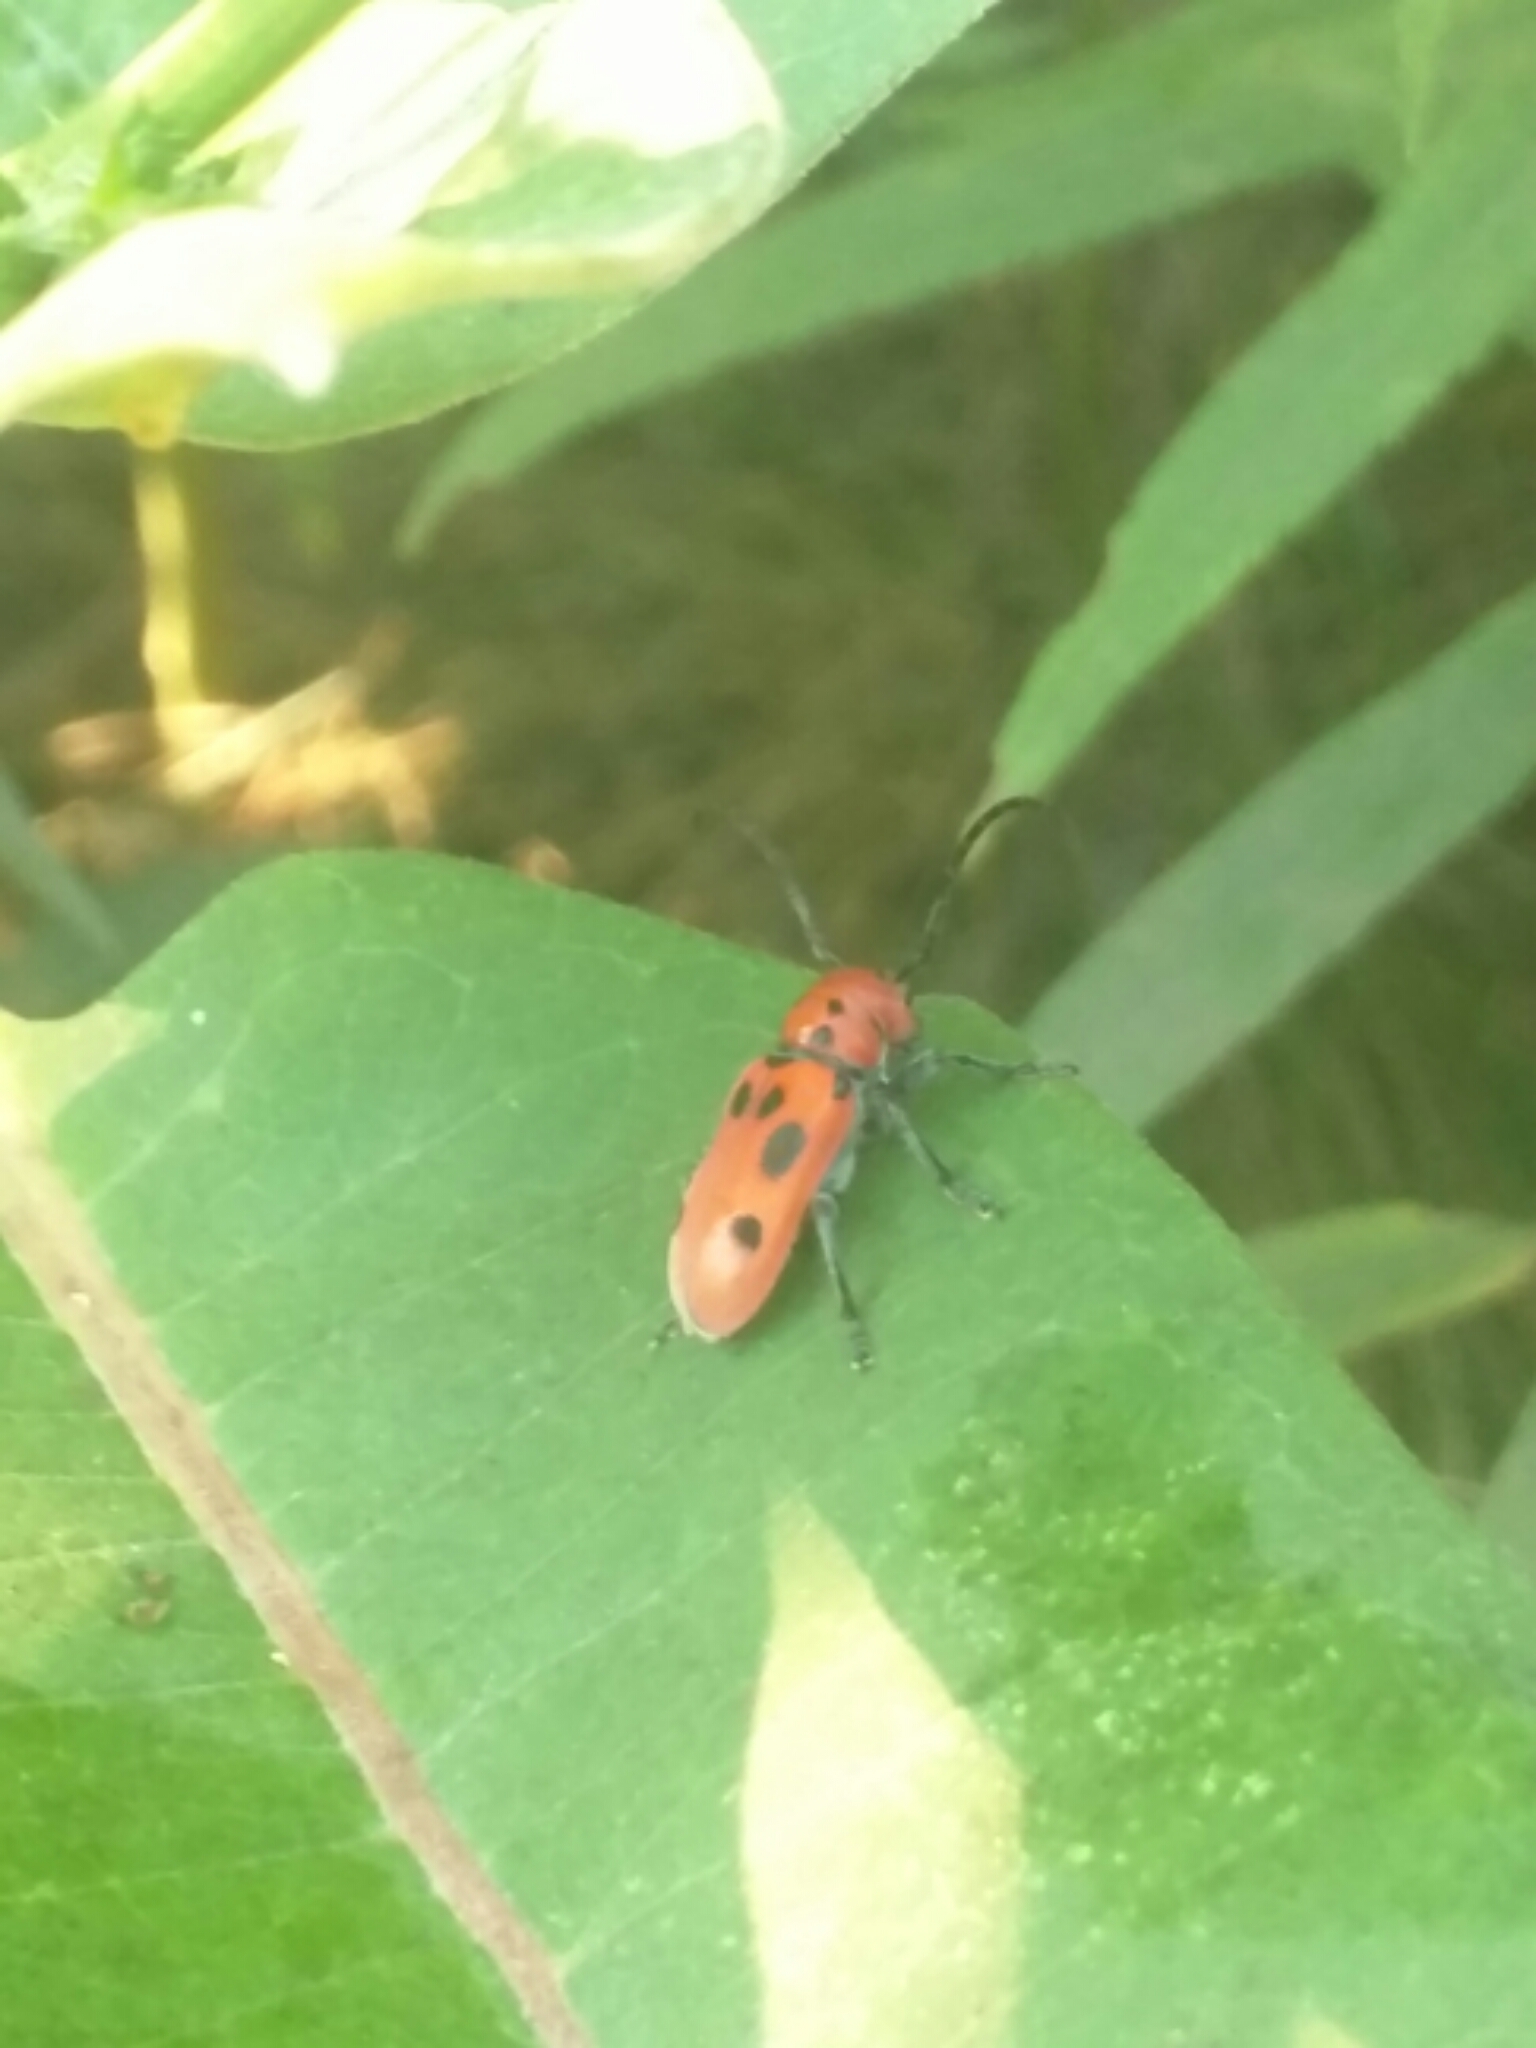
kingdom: Animalia
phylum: Arthropoda
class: Insecta
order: Coleoptera
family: Cerambycidae
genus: Tetraopes
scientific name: Tetraopes tetrophthalmus
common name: Red milkweed beetle
